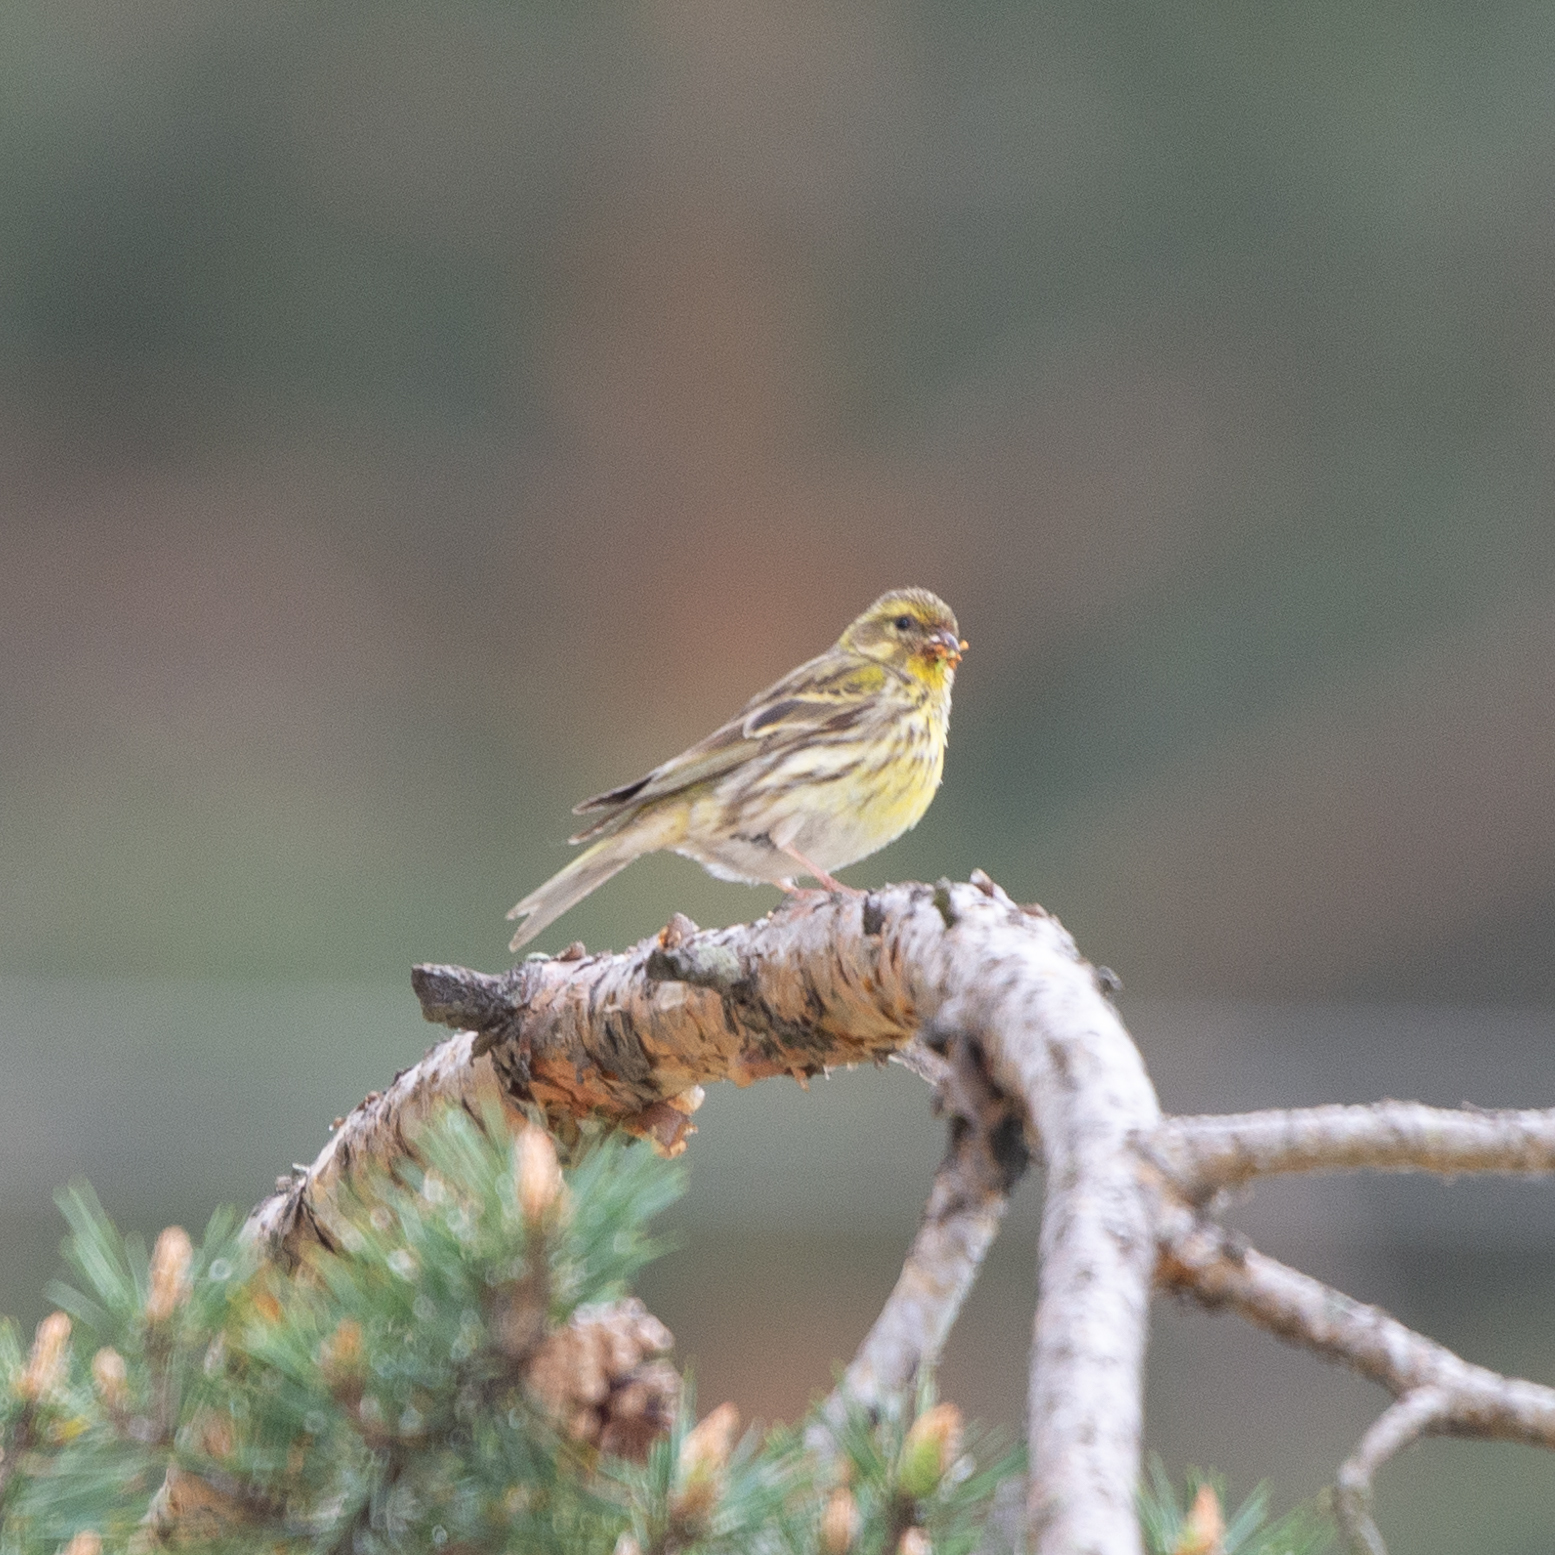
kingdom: Animalia
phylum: Chordata
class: Aves
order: Passeriformes
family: Fringillidae
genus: Serinus
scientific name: Serinus serinus
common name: European serin
